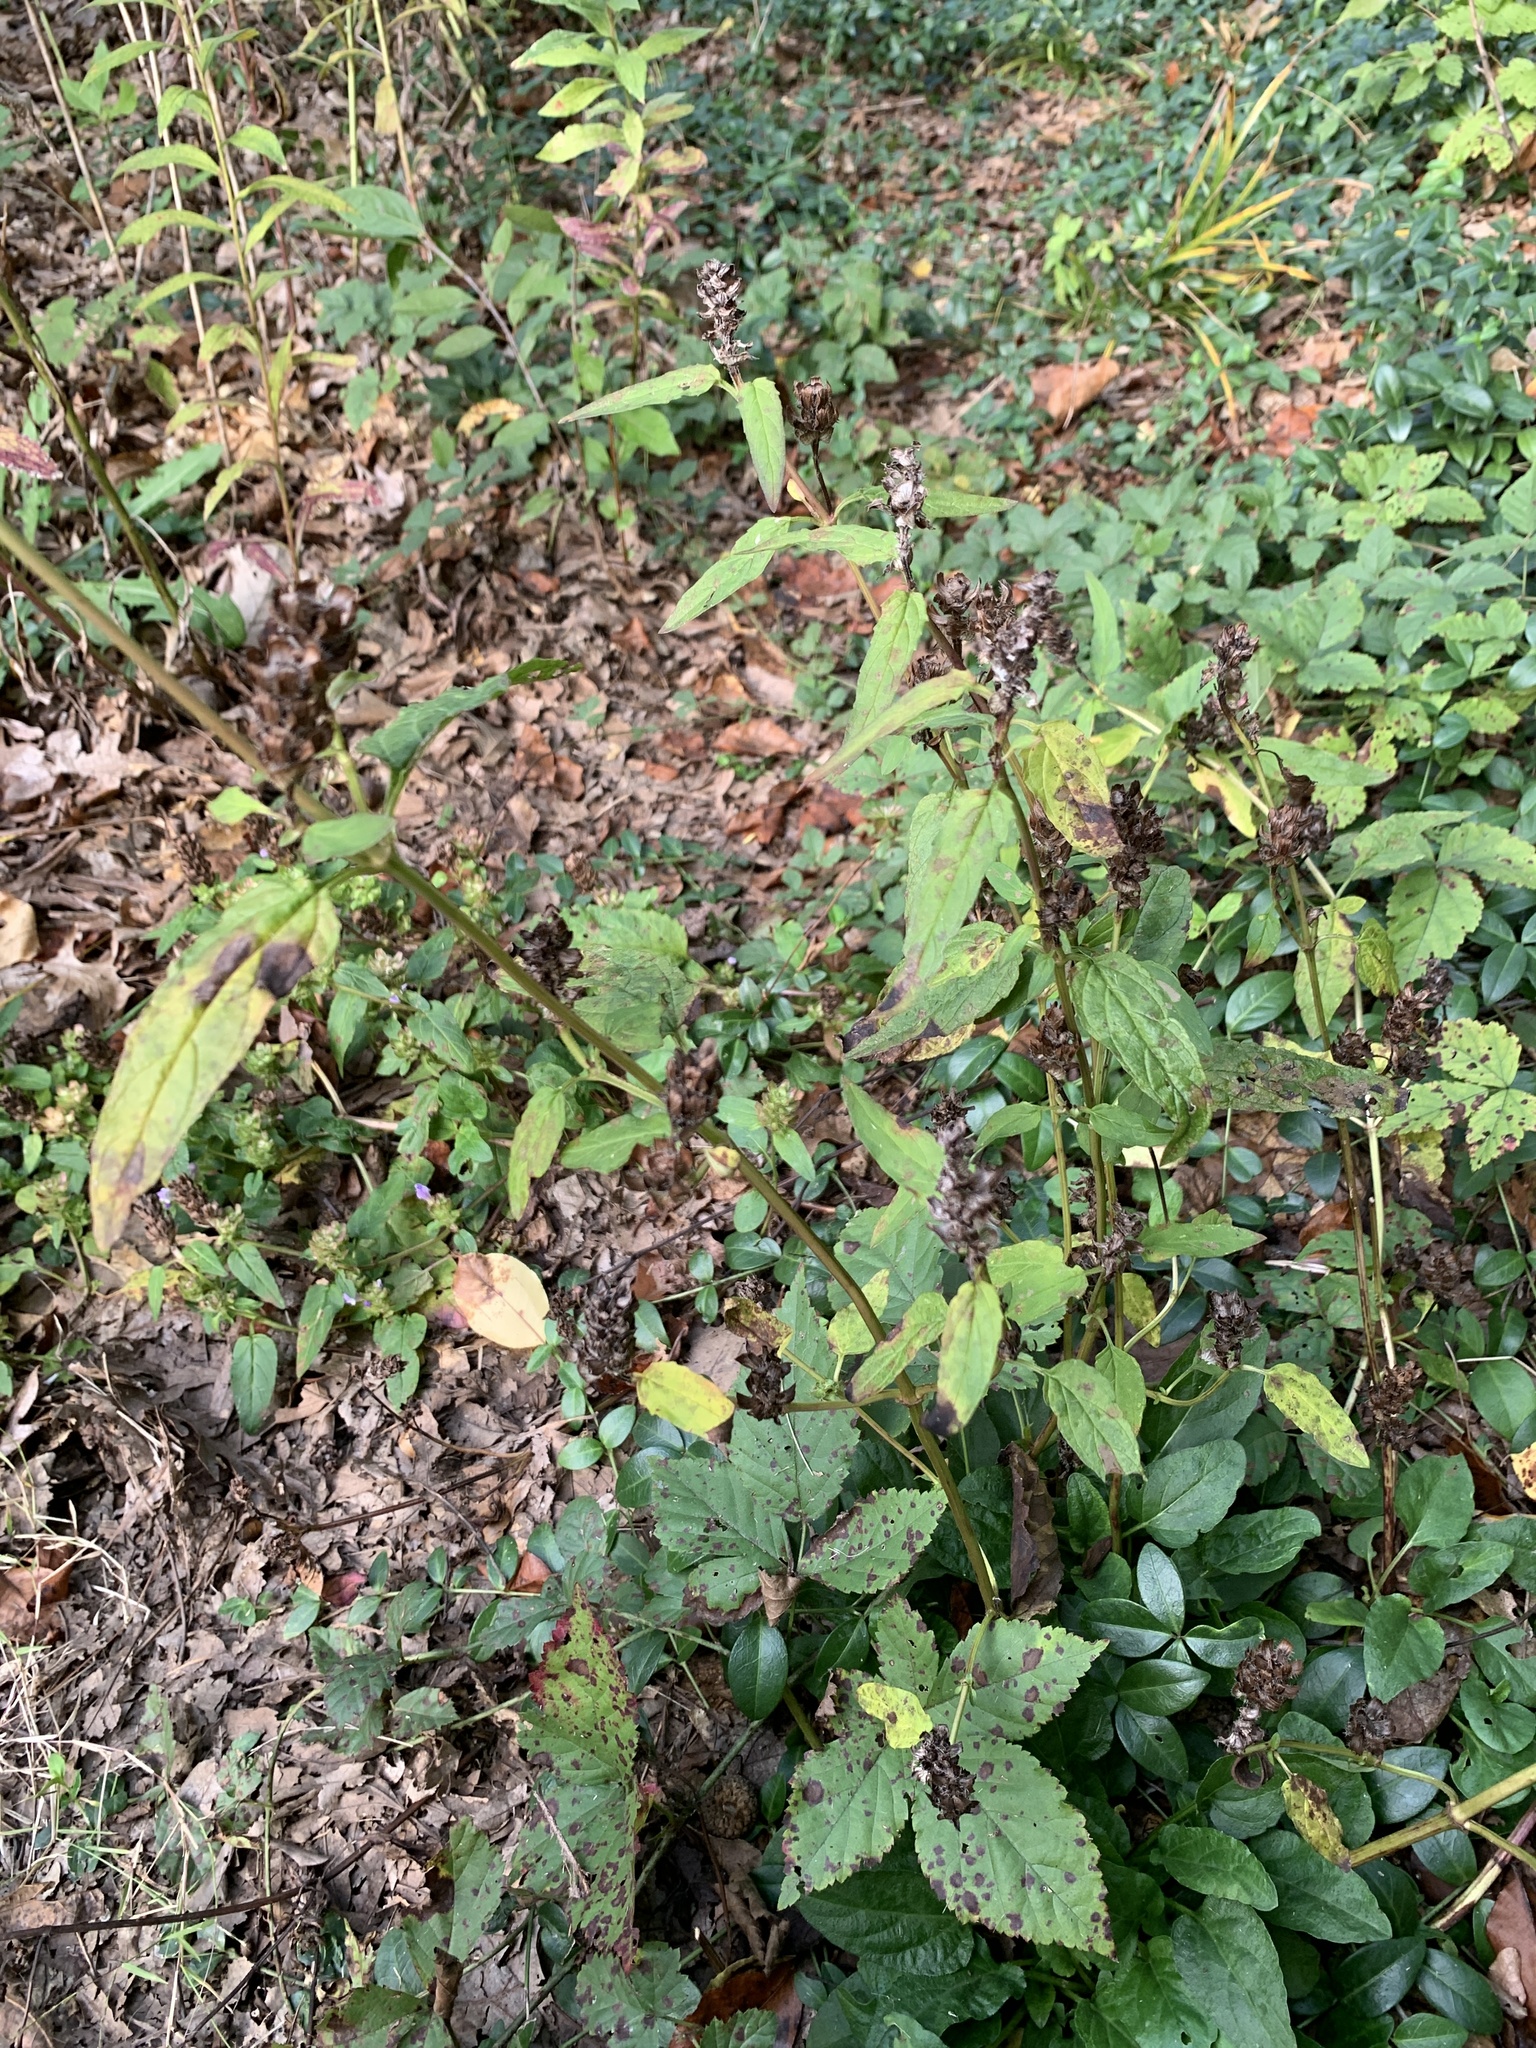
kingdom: Plantae
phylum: Tracheophyta
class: Magnoliopsida
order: Lamiales
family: Lamiaceae
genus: Prunella
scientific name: Prunella vulgaris
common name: Heal-all
